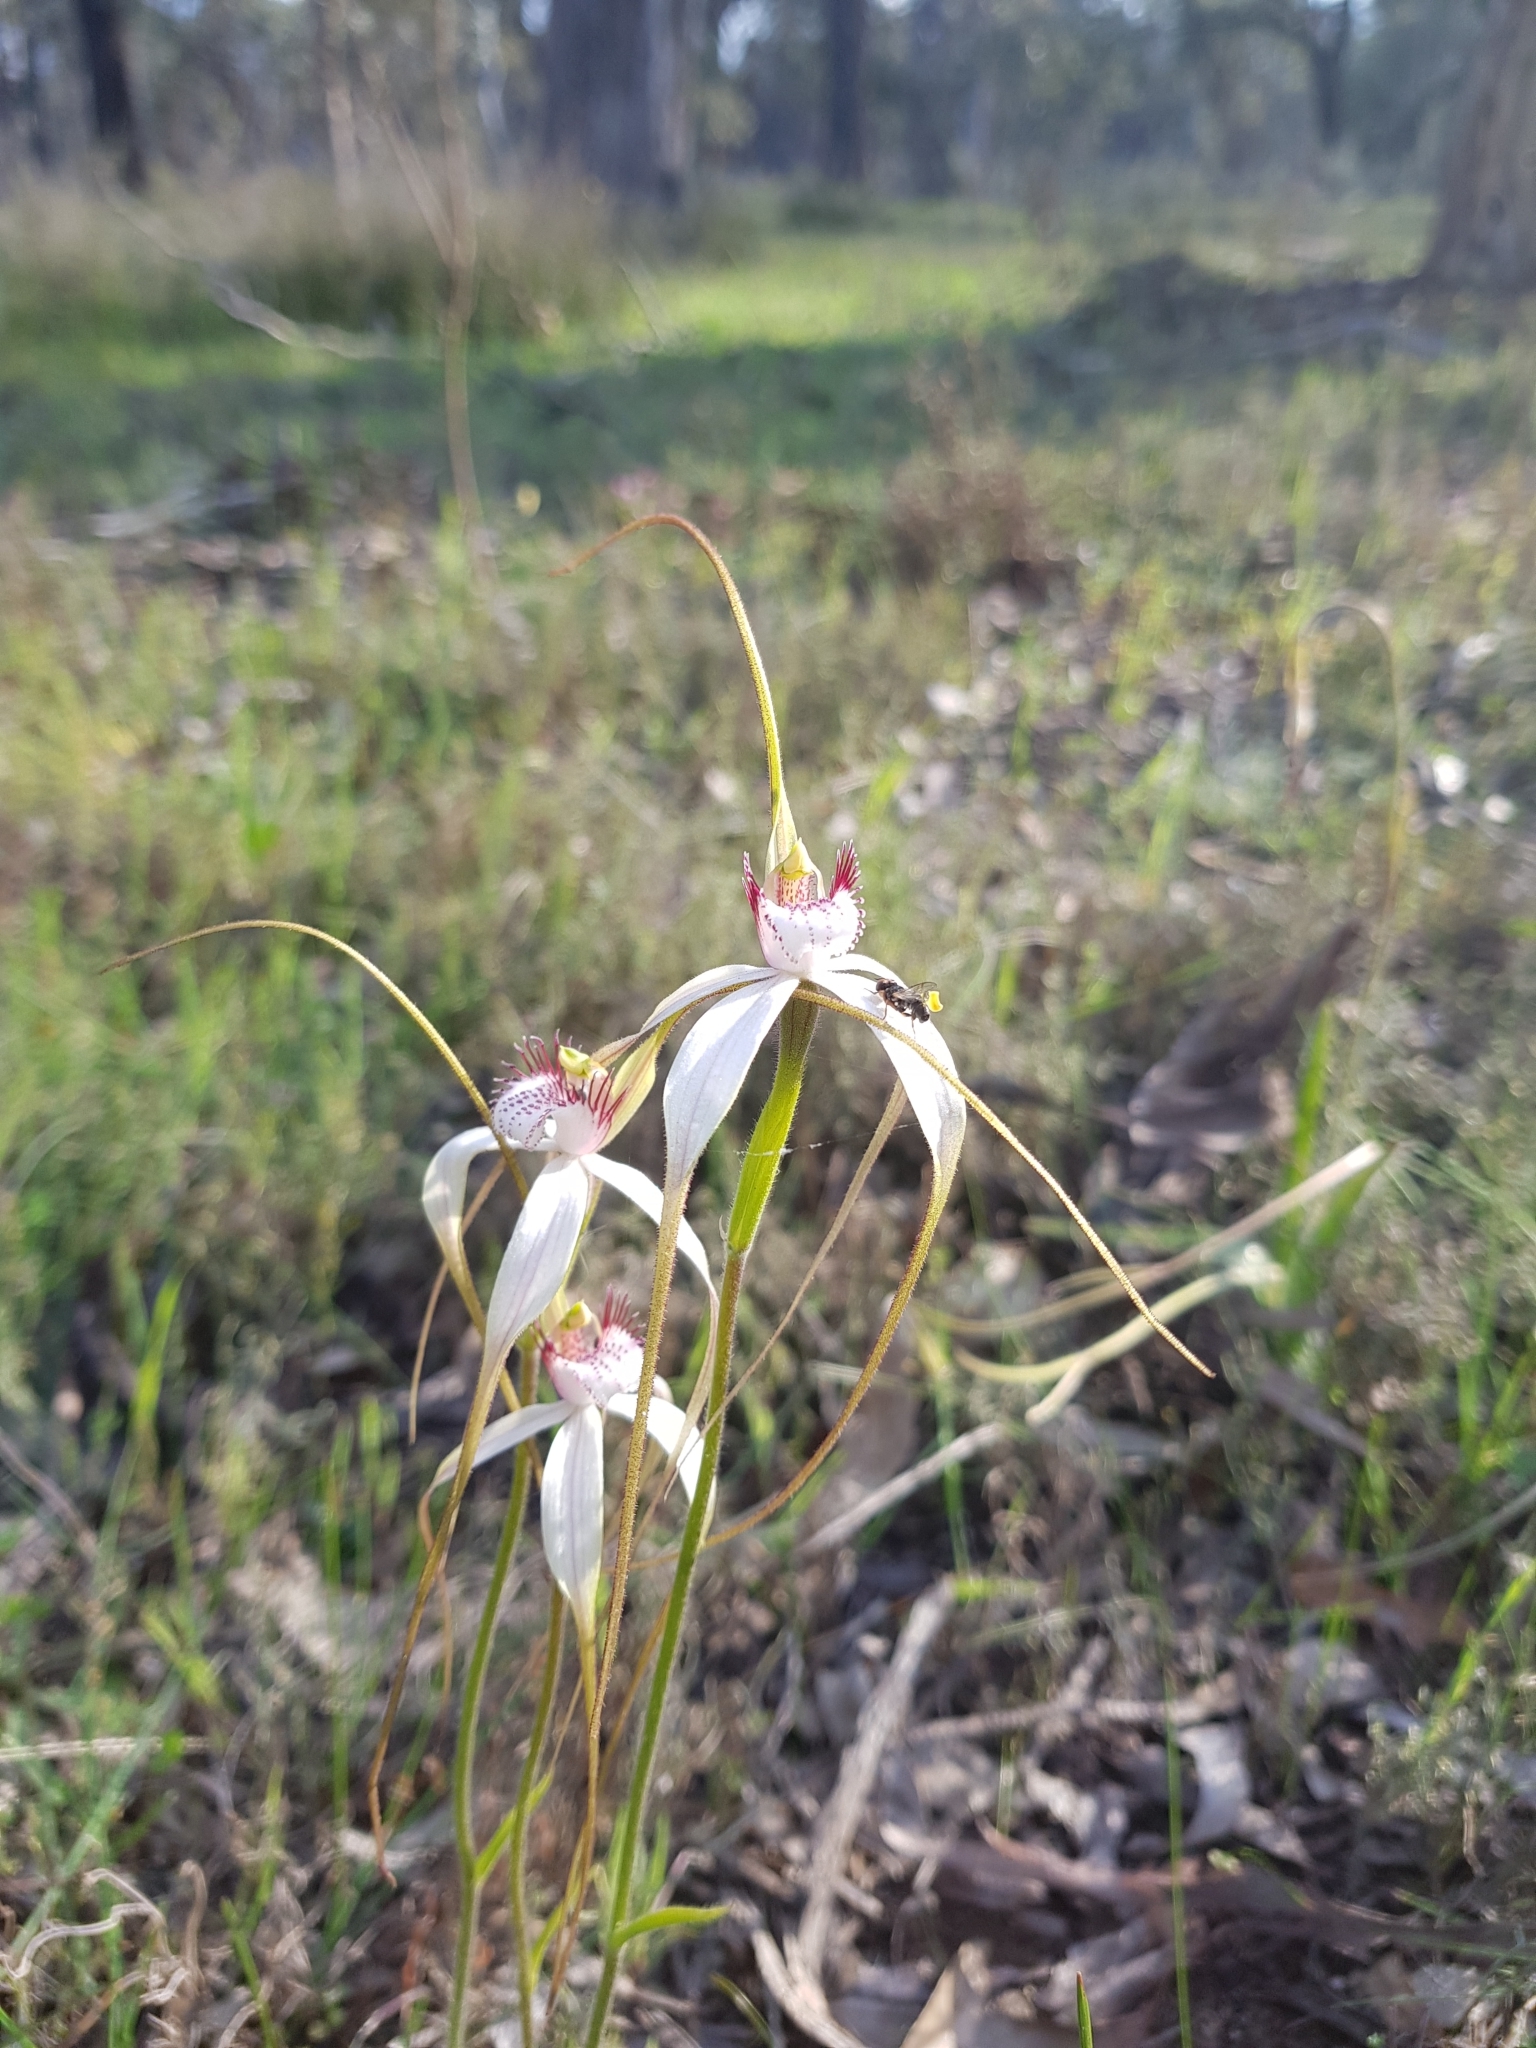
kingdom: Plantae
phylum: Tracheophyta
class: Liliopsida
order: Asparagales
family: Orchidaceae
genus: Caladenia
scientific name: Caladenia longicauda
